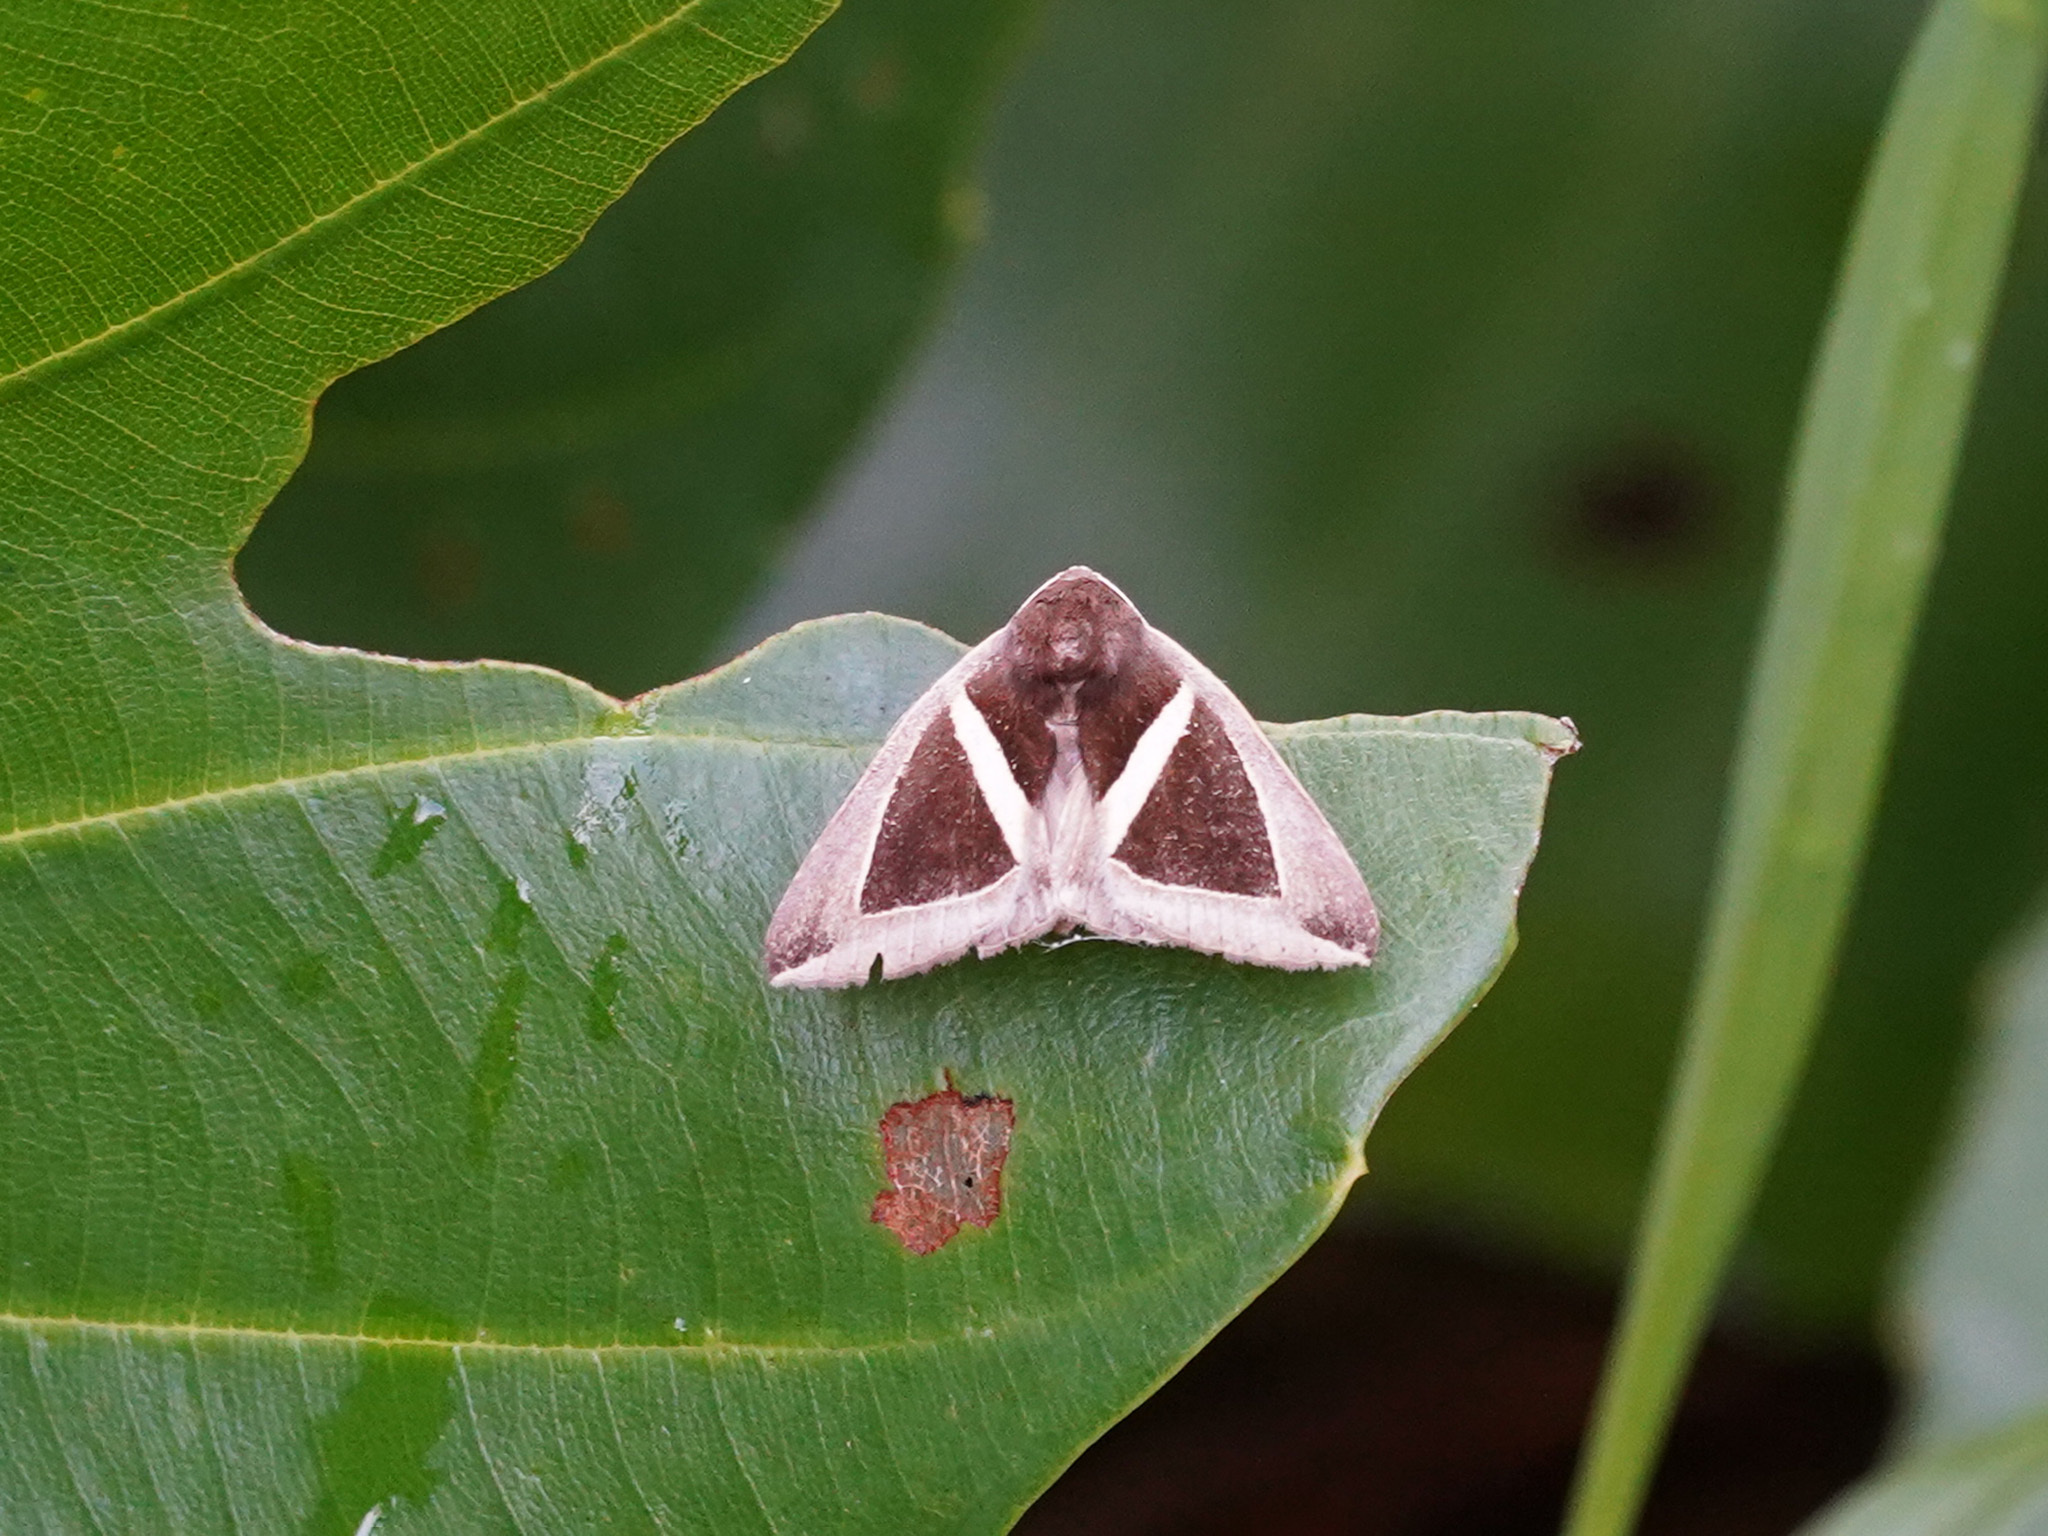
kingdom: Animalia
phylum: Arthropoda
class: Insecta
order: Lepidoptera
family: Erebidae
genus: Chalciope
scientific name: Chalciope mygdon
